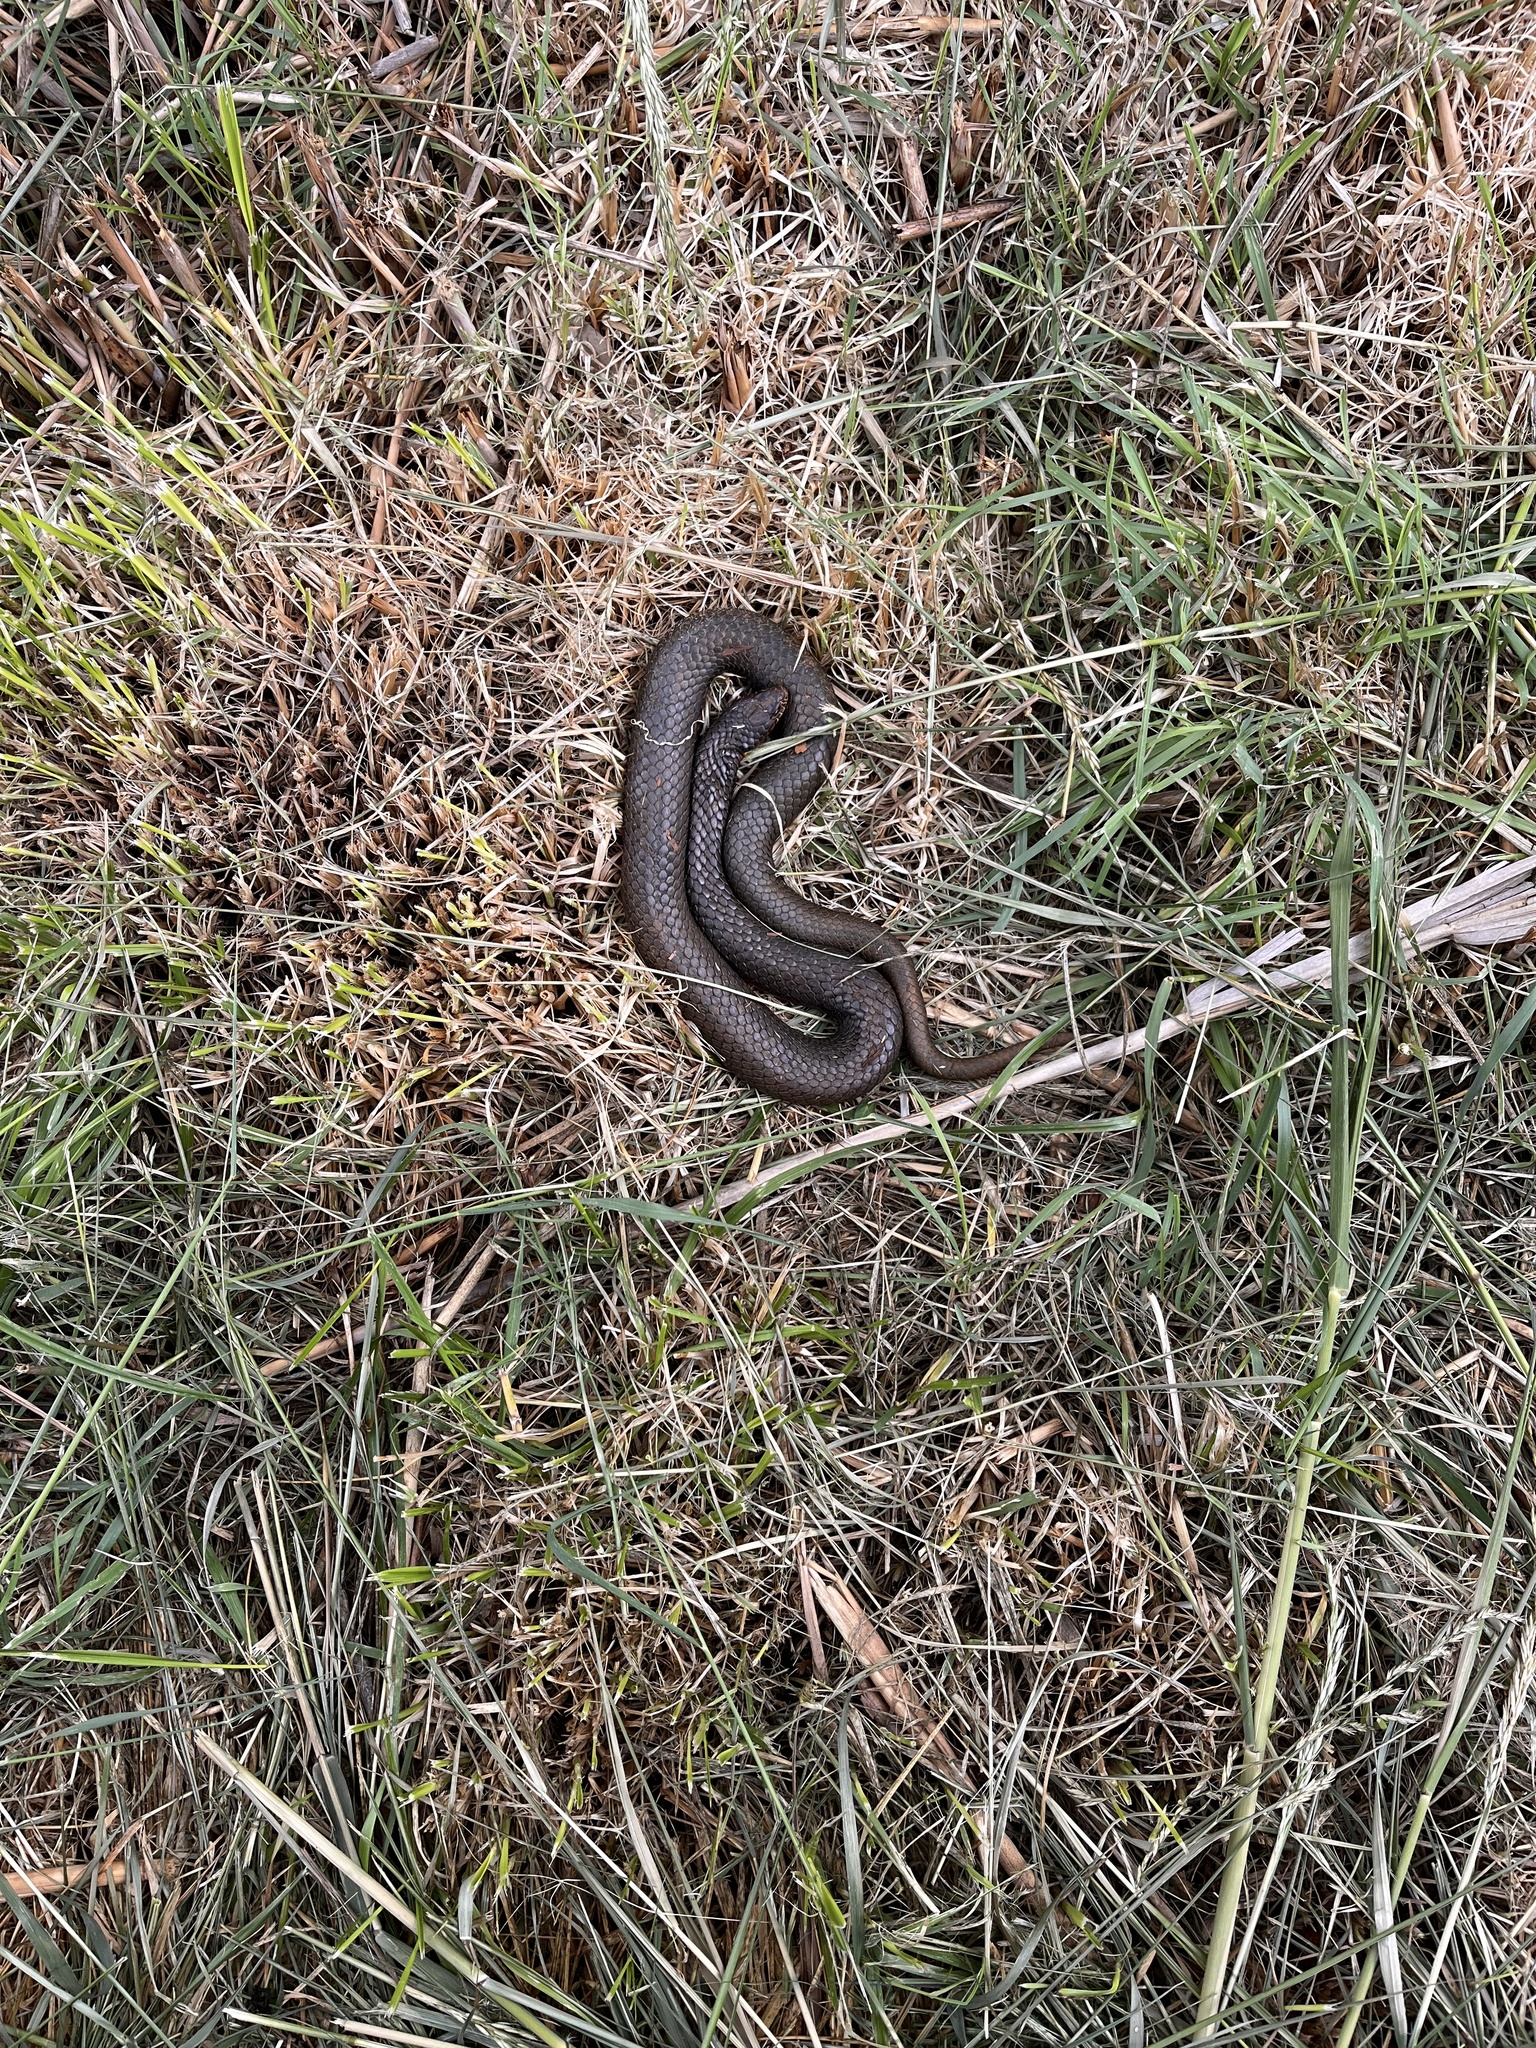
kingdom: Animalia
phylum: Chordata
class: Squamata
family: Elapidae
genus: Austrelaps
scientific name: Austrelaps superbus
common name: Copperhead snake
